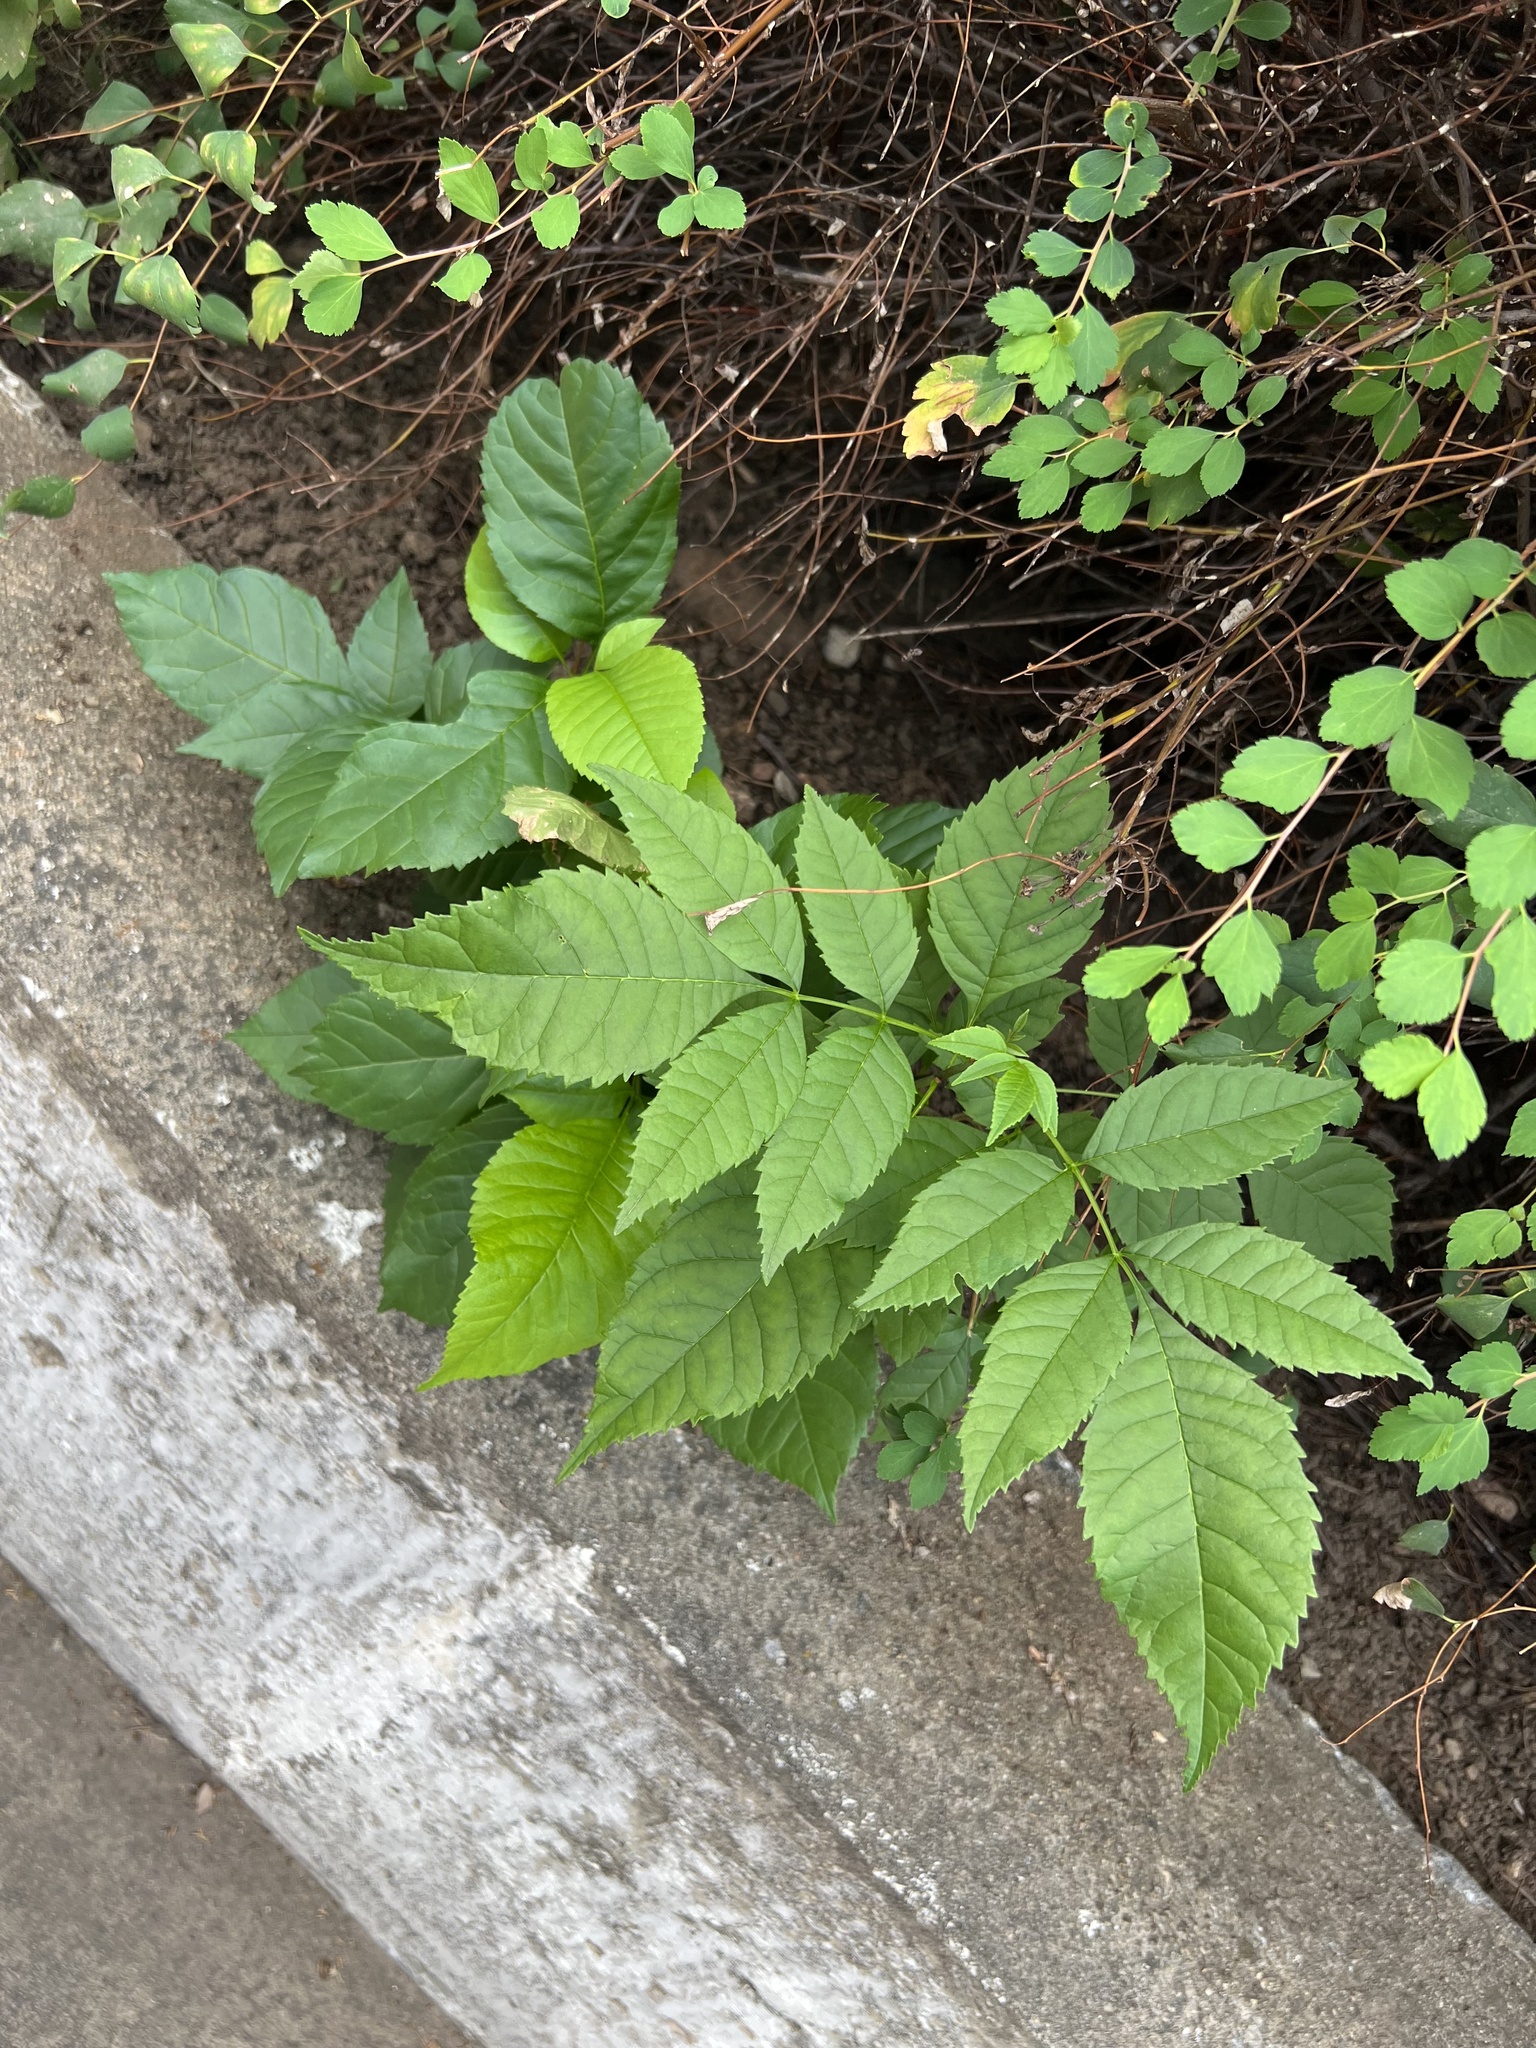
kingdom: Plantae
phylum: Tracheophyta
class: Magnoliopsida
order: Lamiales
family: Oleaceae
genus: Fraxinus
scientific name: Fraxinus
